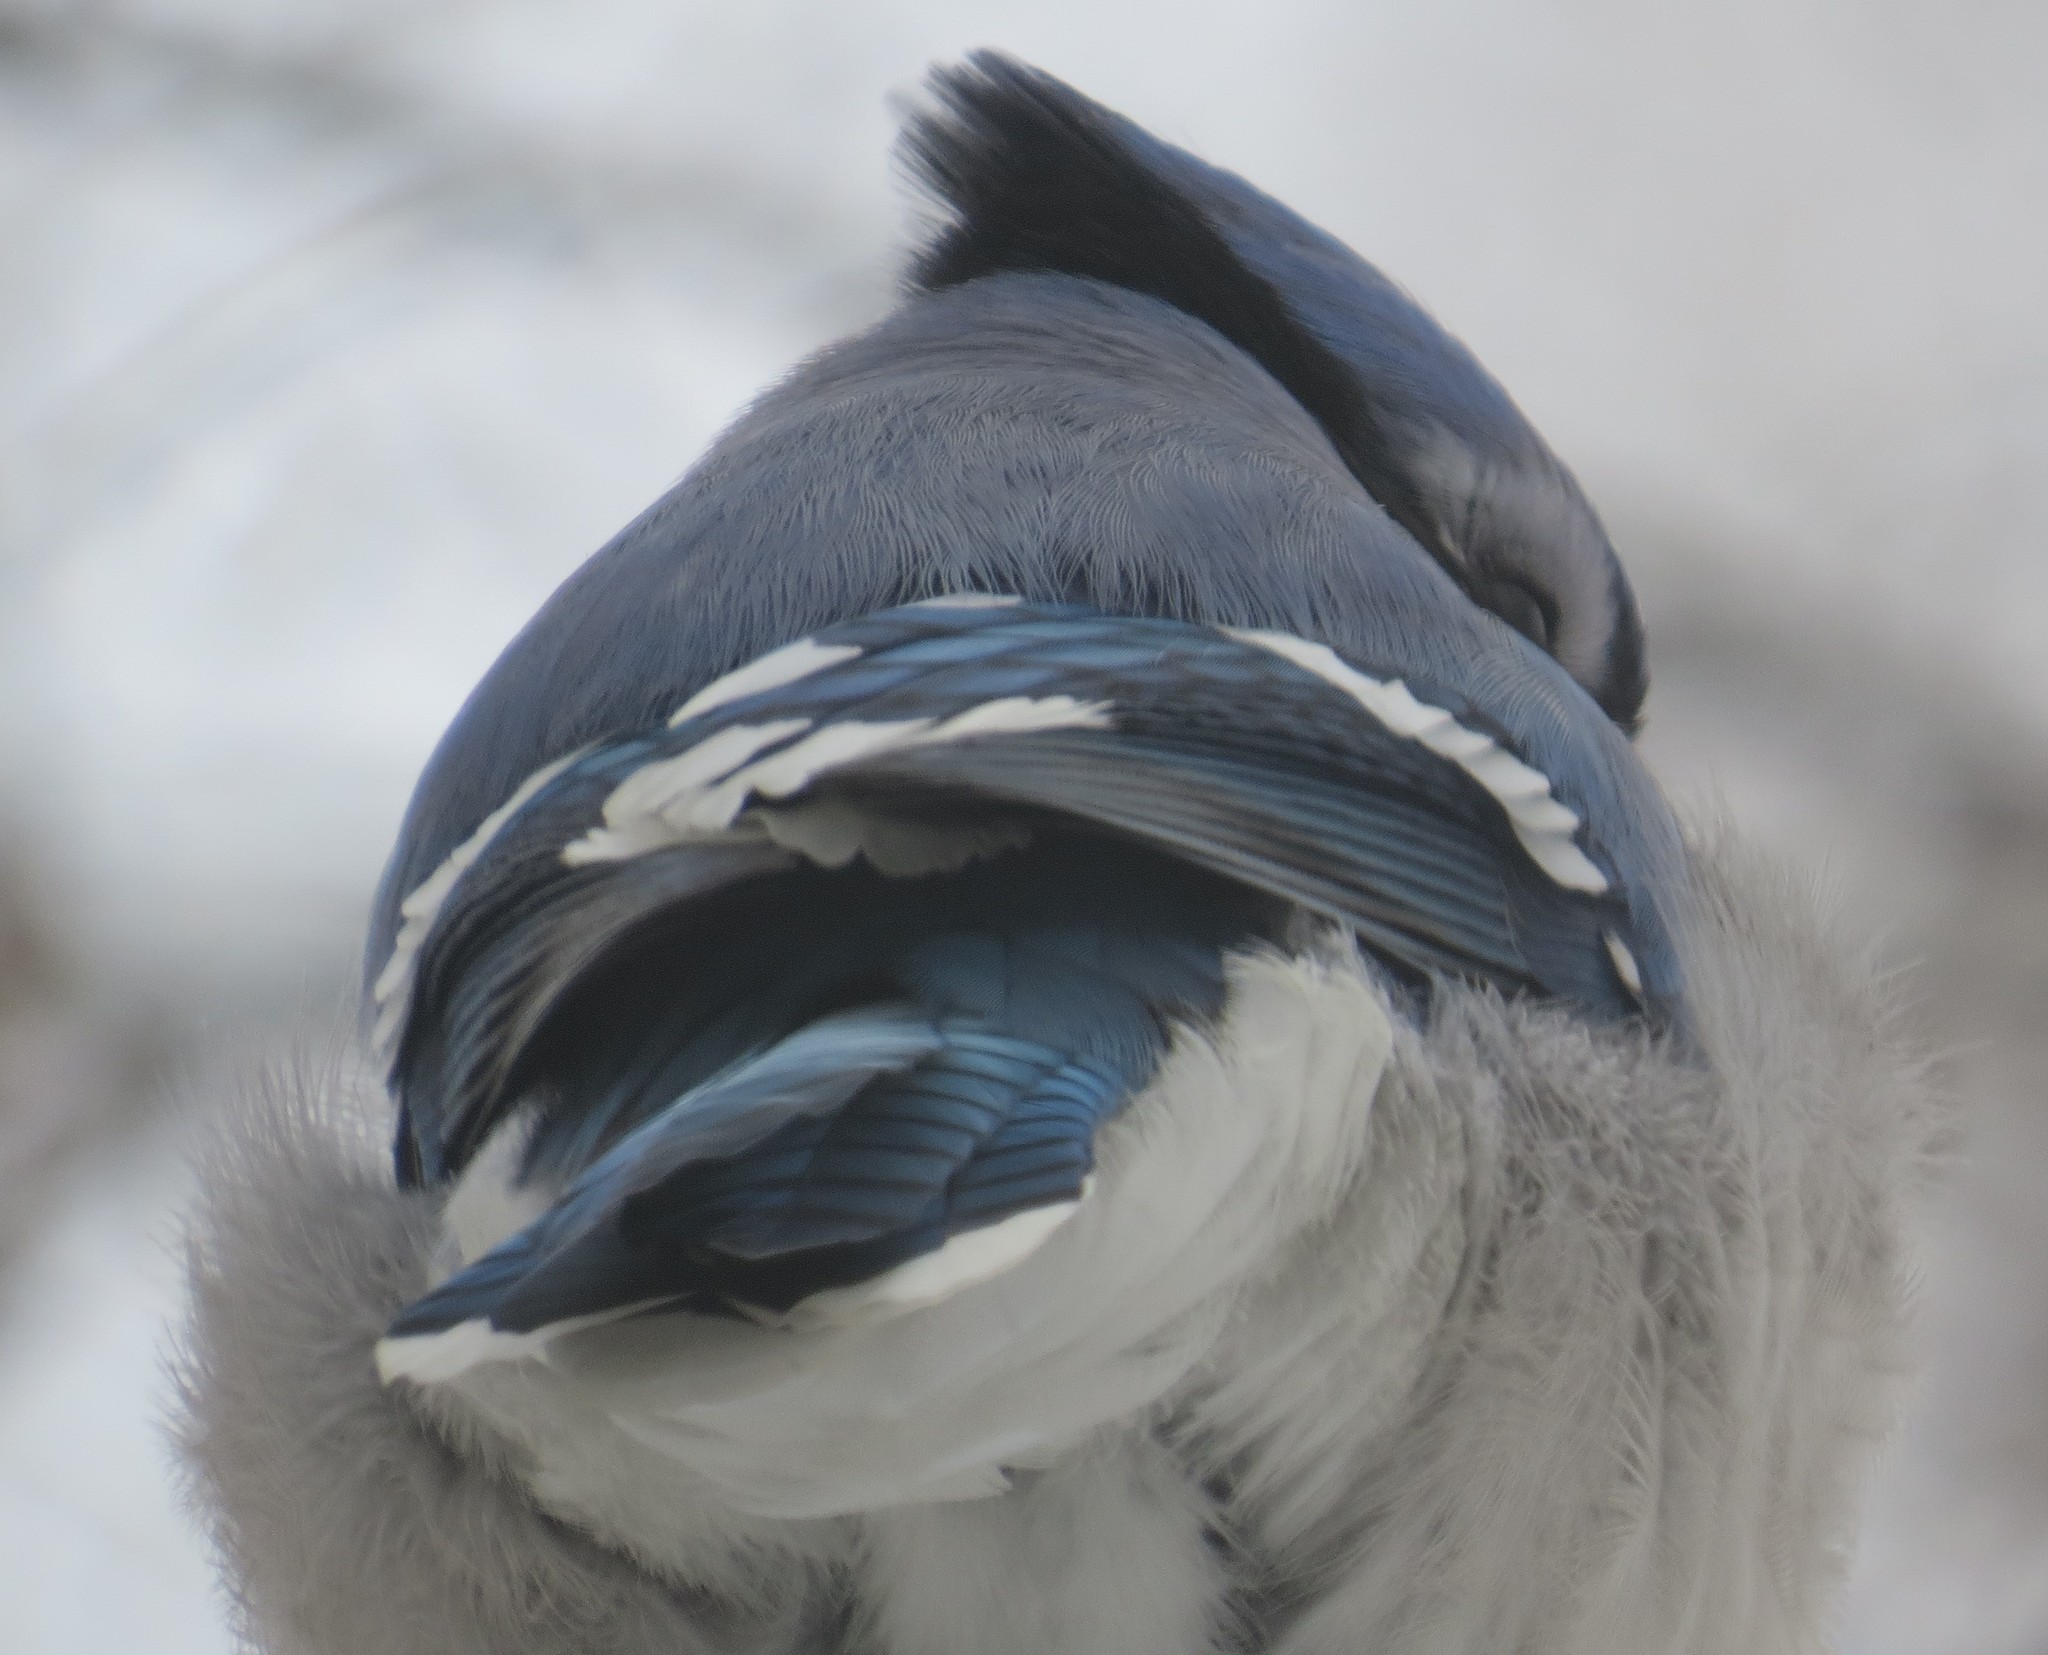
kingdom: Animalia
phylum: Chordata
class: Aves
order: Passeriformes
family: Corvidae
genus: Cyanocitta
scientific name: Cyanocitta cristata
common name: Blue jay
